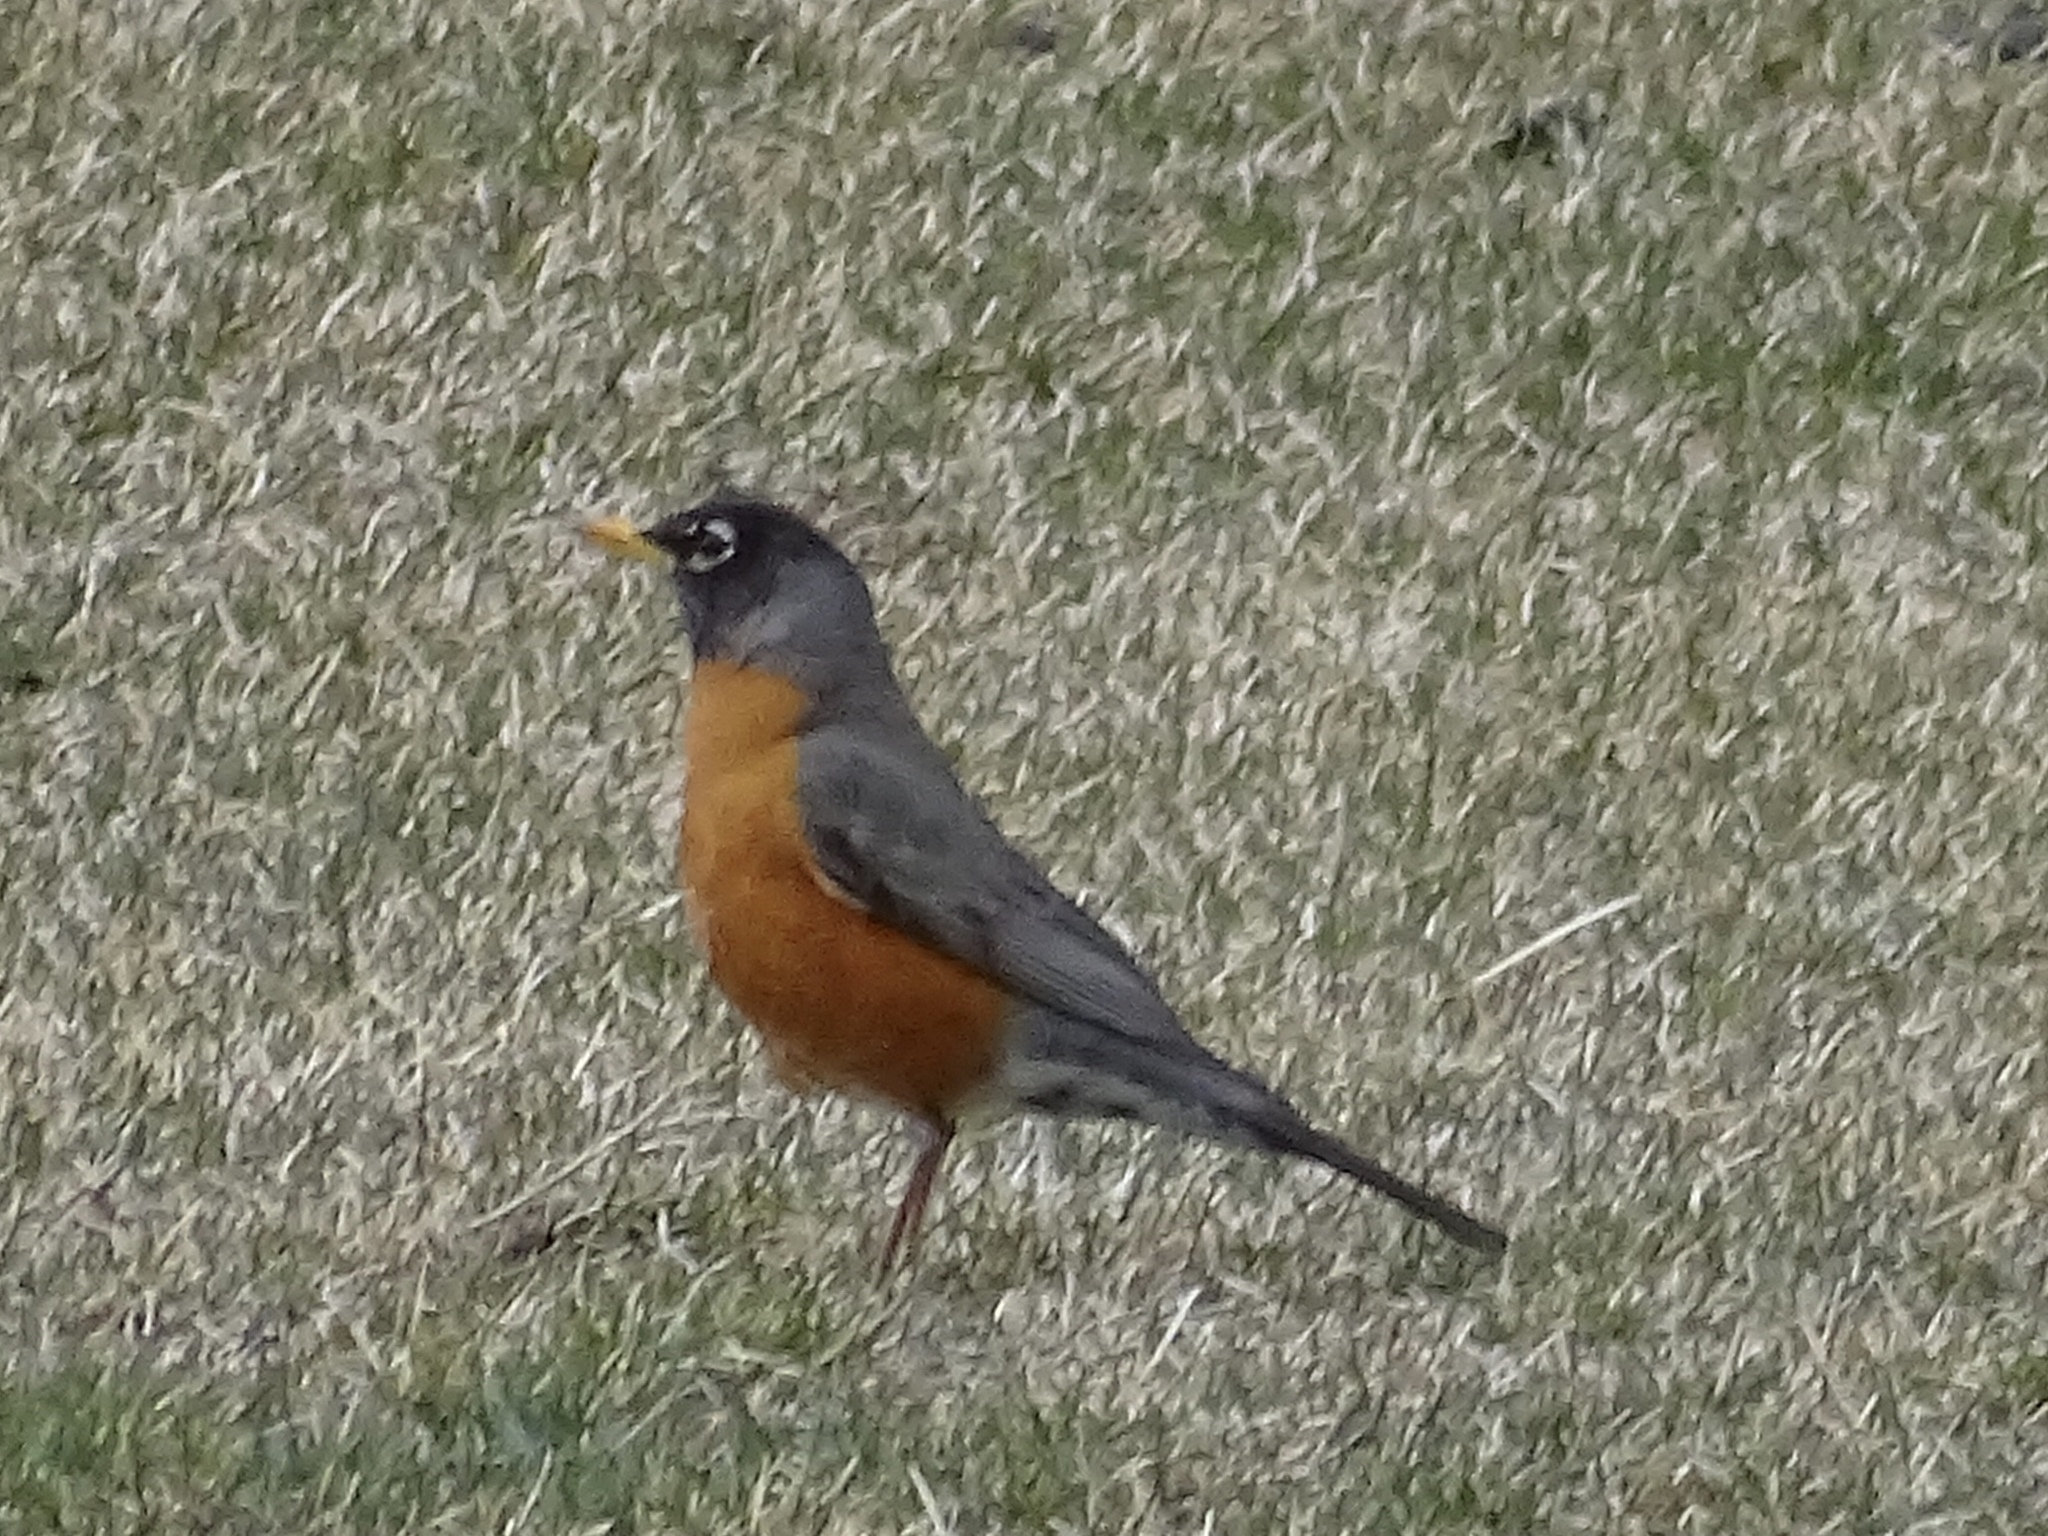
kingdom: Animalia
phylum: Chordata
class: Aves
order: Passeriformes
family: Turdidae
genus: Turdus
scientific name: Turdus migratorius
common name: American robin
